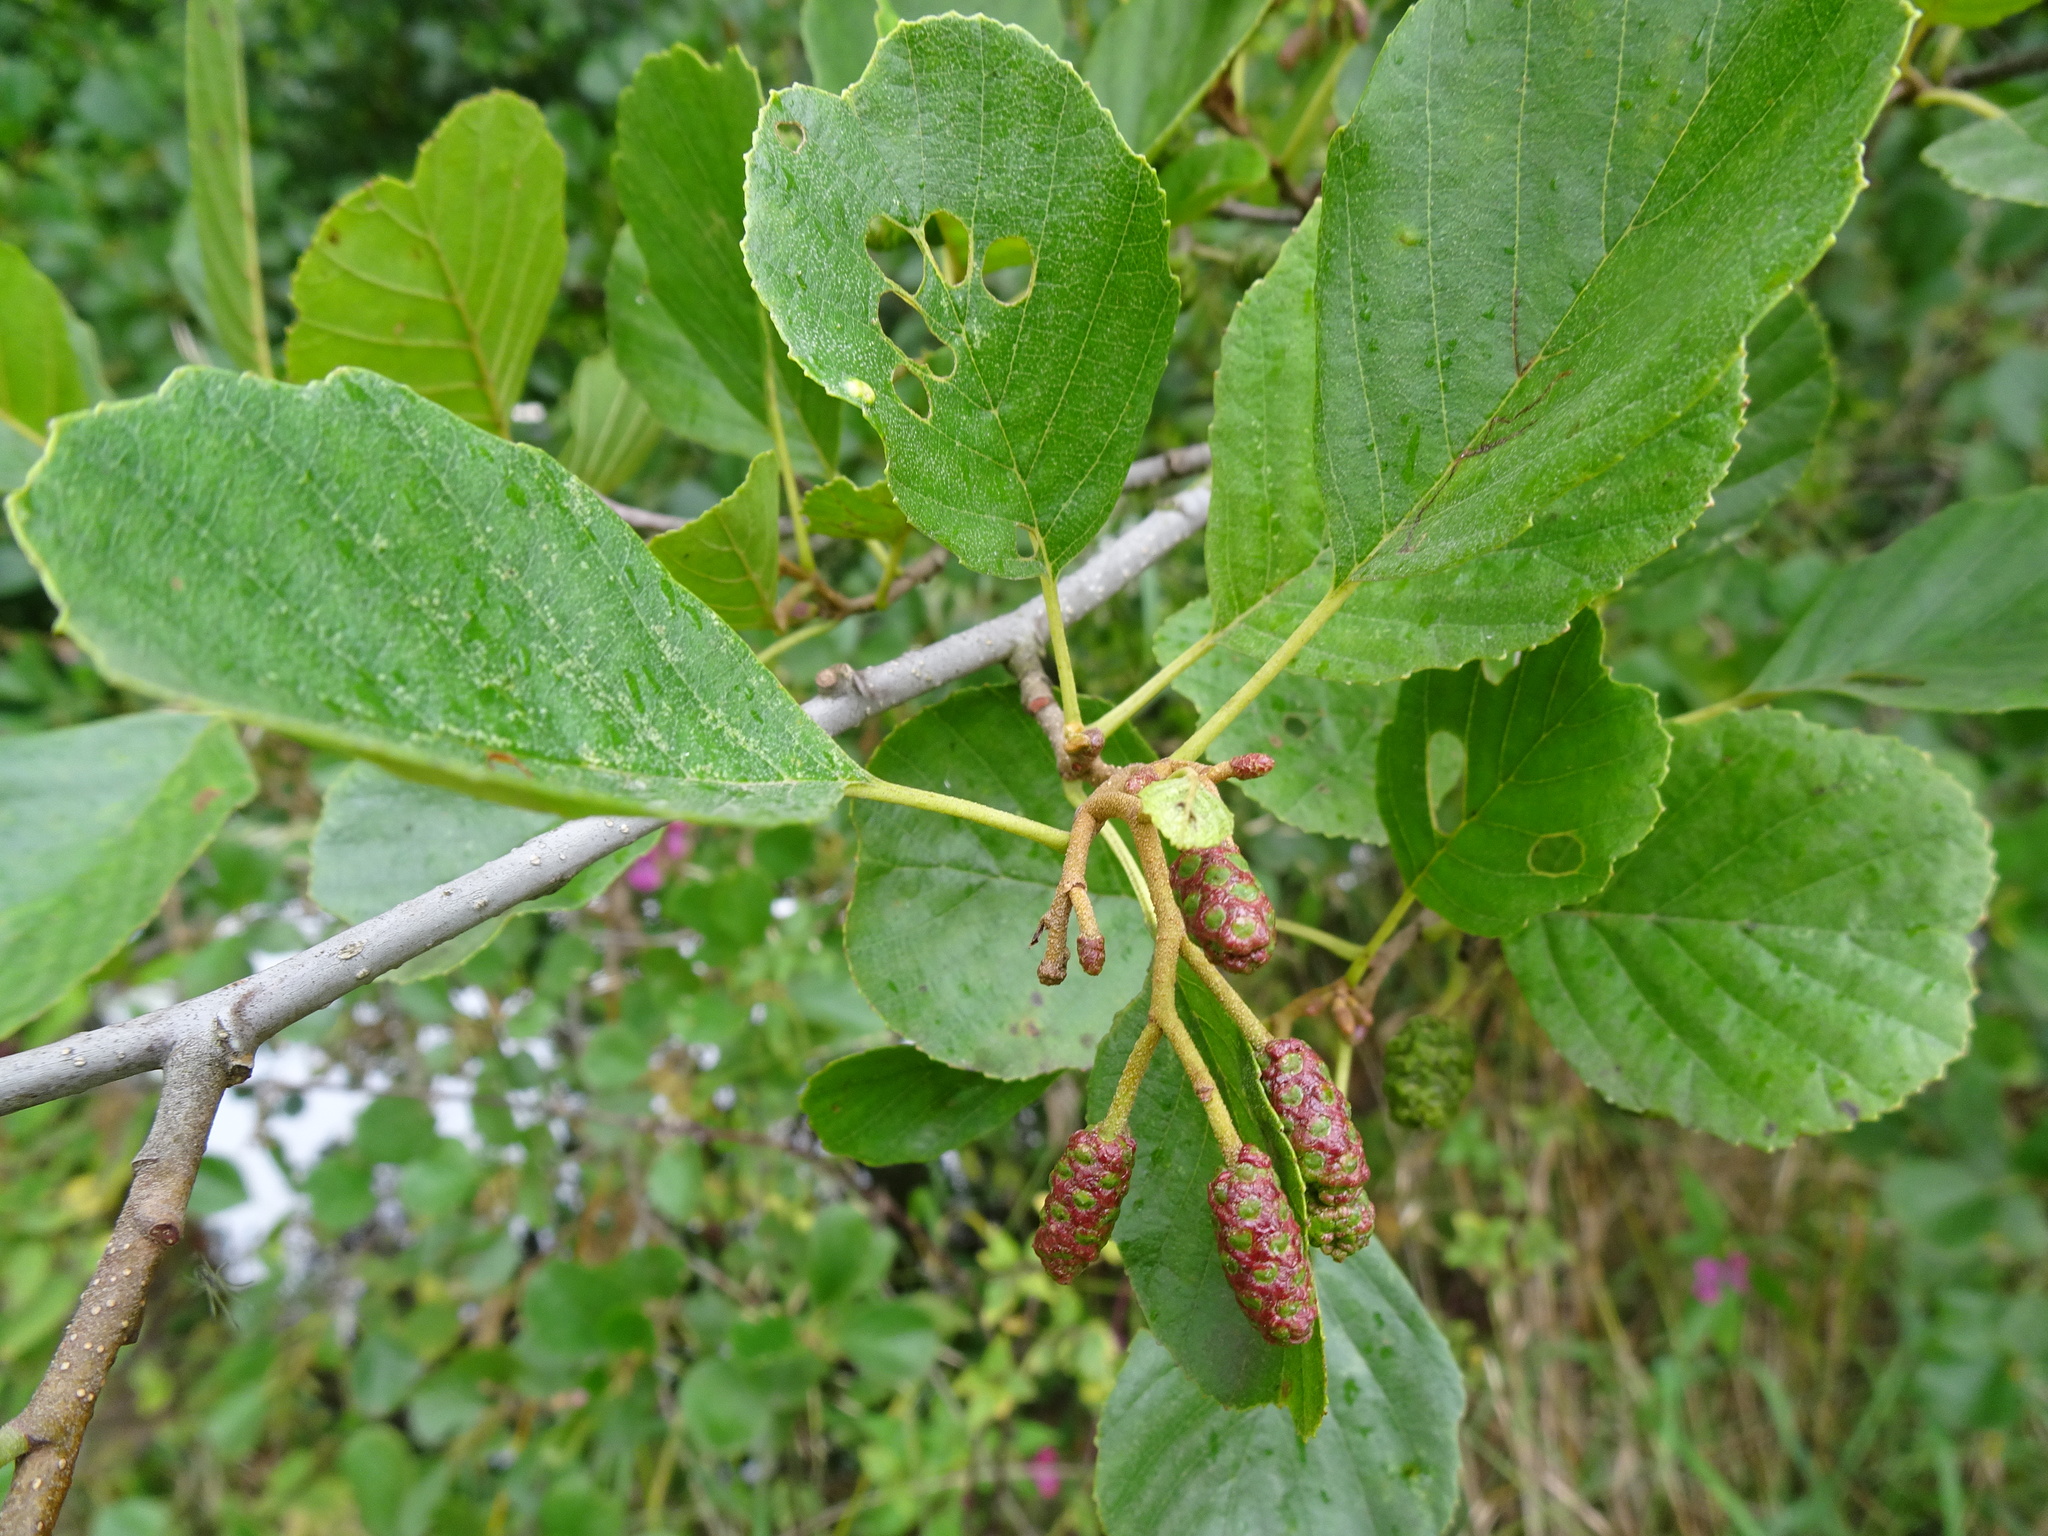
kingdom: Plantae
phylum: Tracheophyta
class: Magnoliopsida
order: Fagales
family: Betulaceae
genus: Alnus
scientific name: Alnus glutinosa
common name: Black alder
